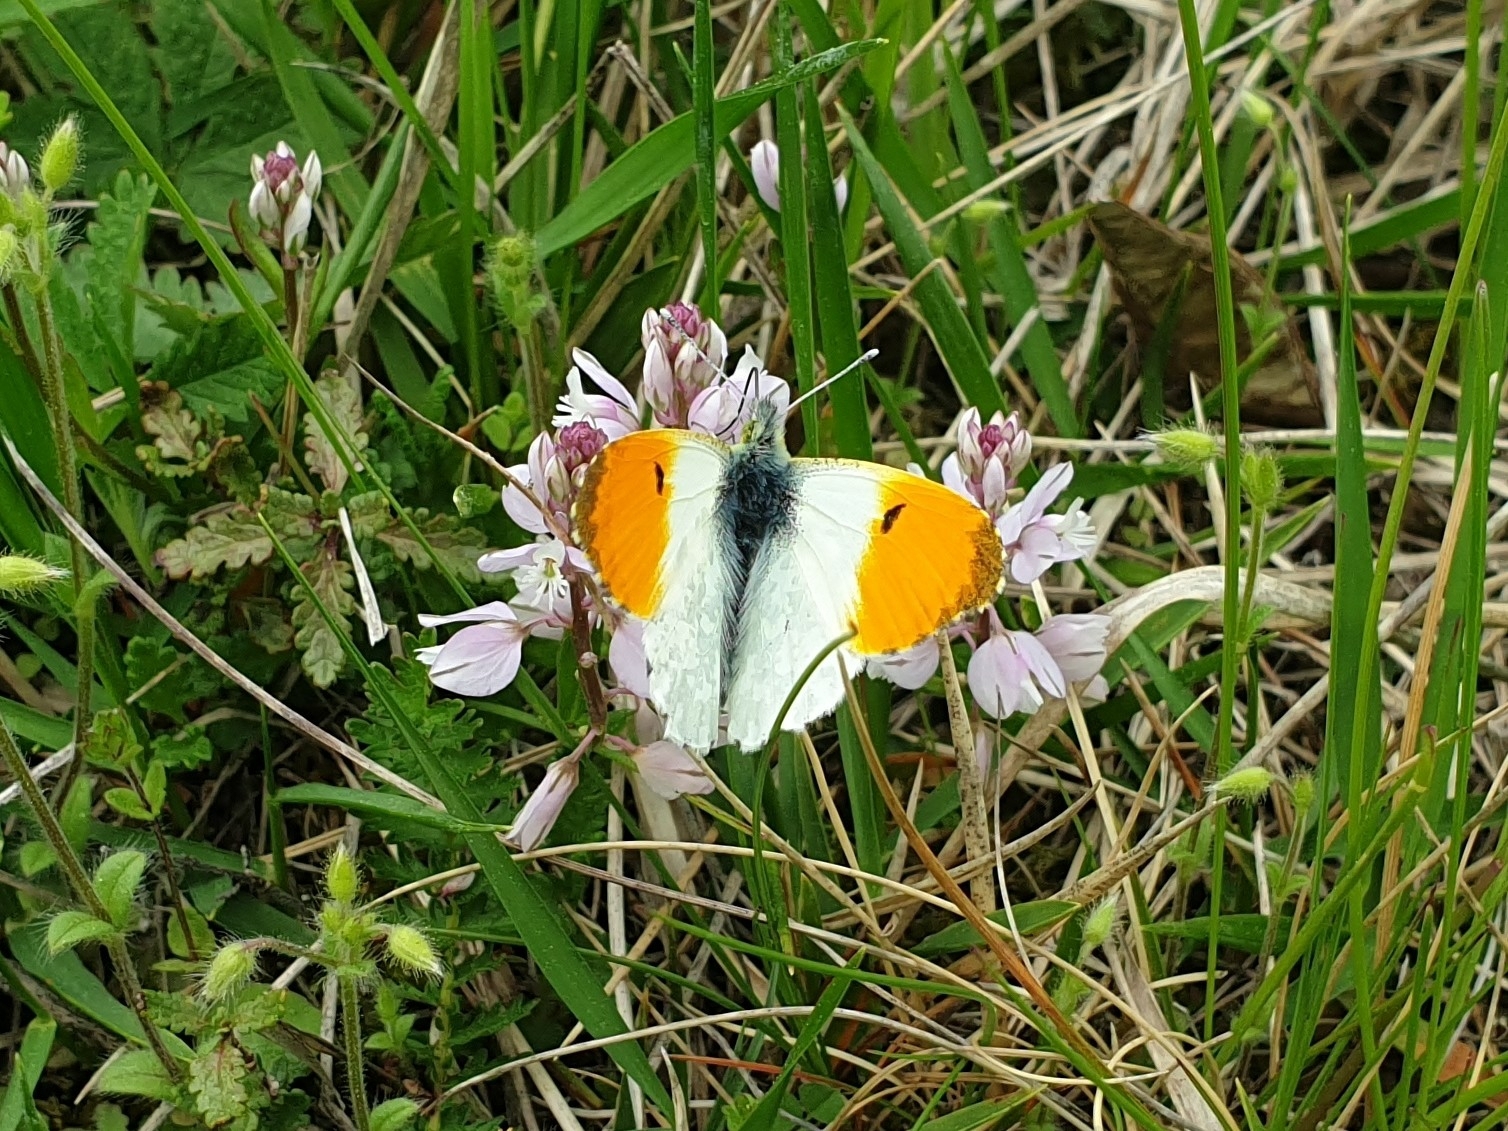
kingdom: Animalia
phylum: Arthropoda
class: Insecta
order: Lepidoptera
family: Pieridae
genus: Anthocharis
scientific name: Anthocharis cardamines
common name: Orange-tip
